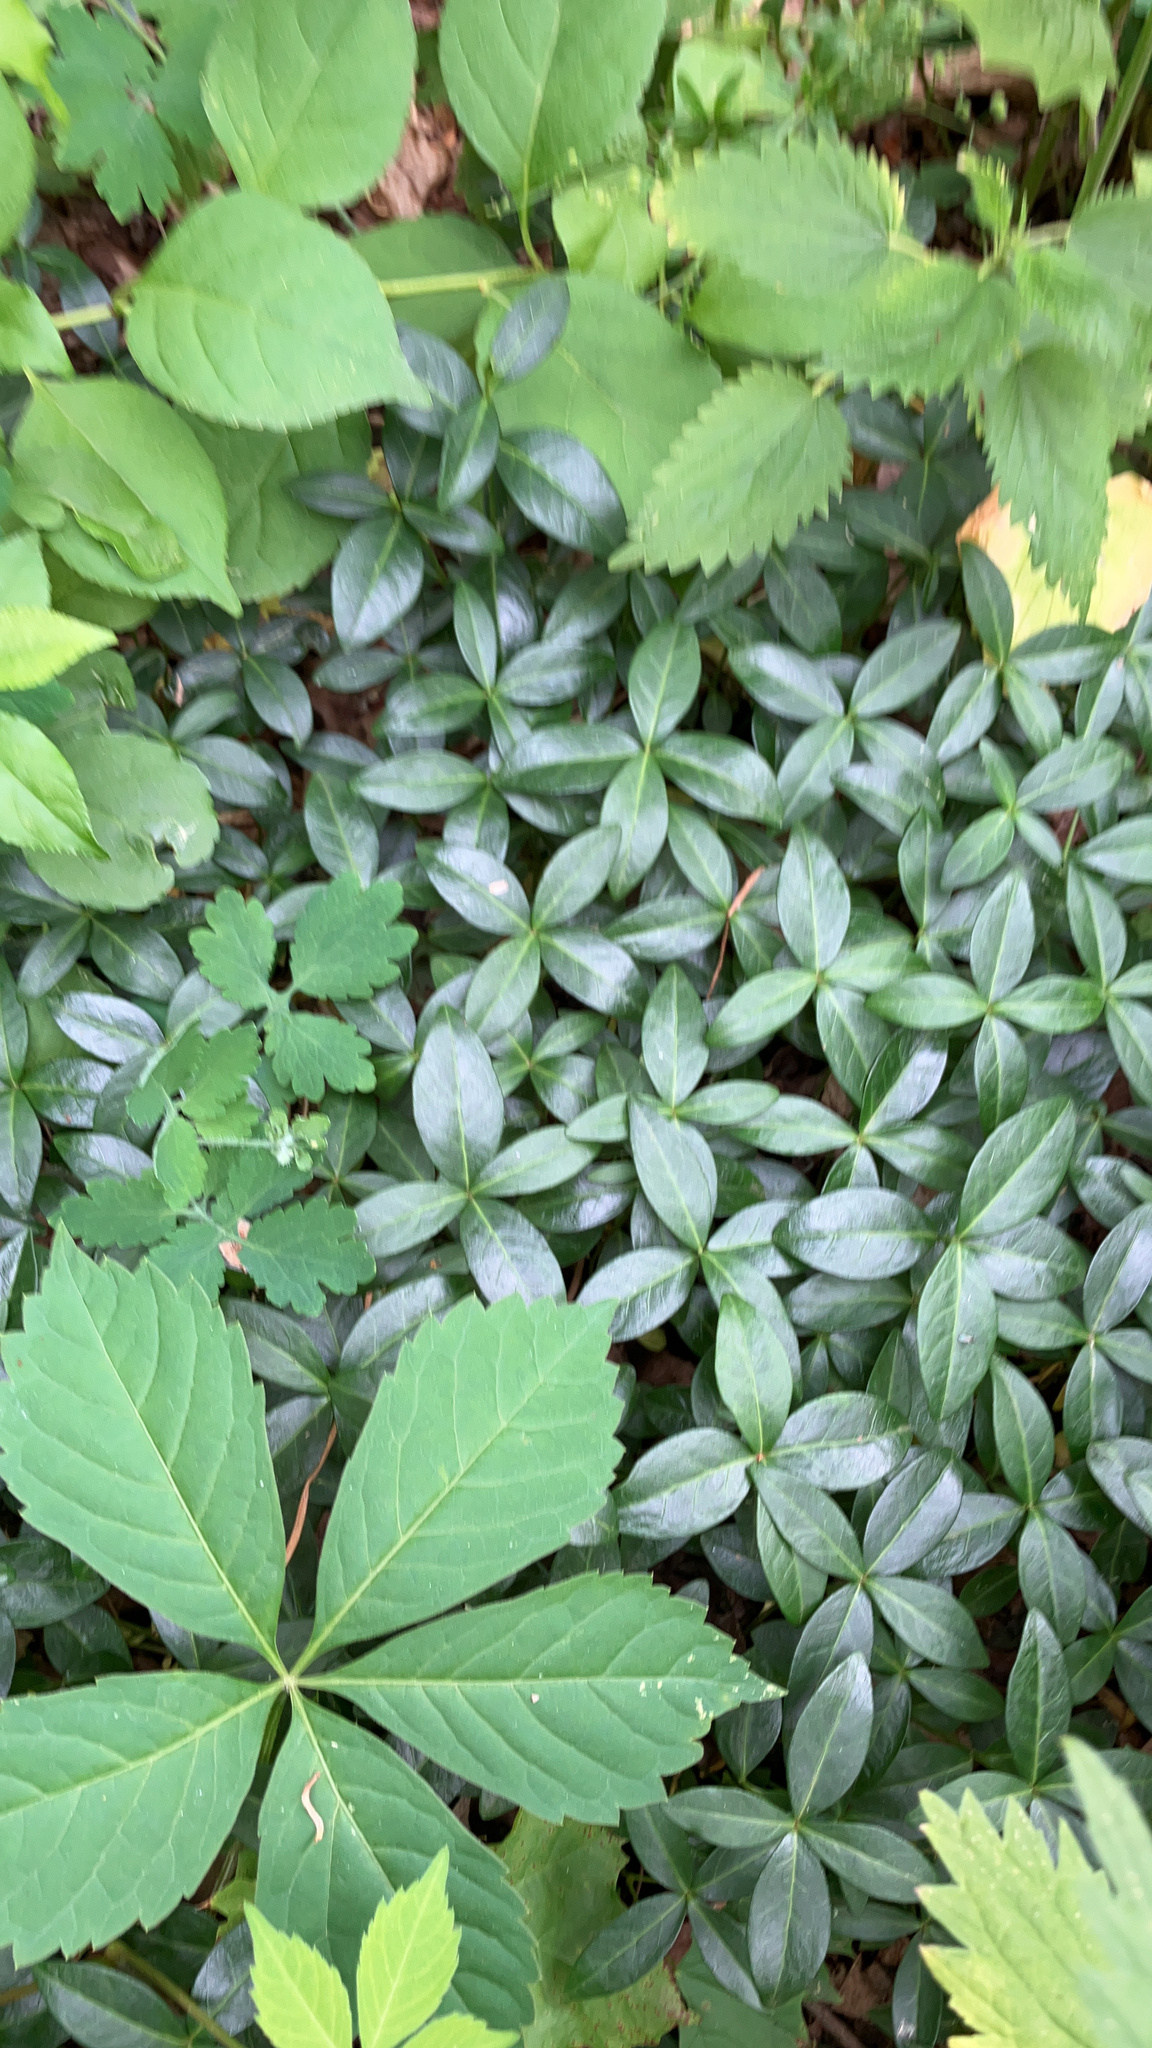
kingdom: Plantae
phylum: Tracheophyta
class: Magnoliopsida
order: Gentianales
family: Apocynaceae
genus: Vinca
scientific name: Vinca minor
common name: Lesser periwinkle
